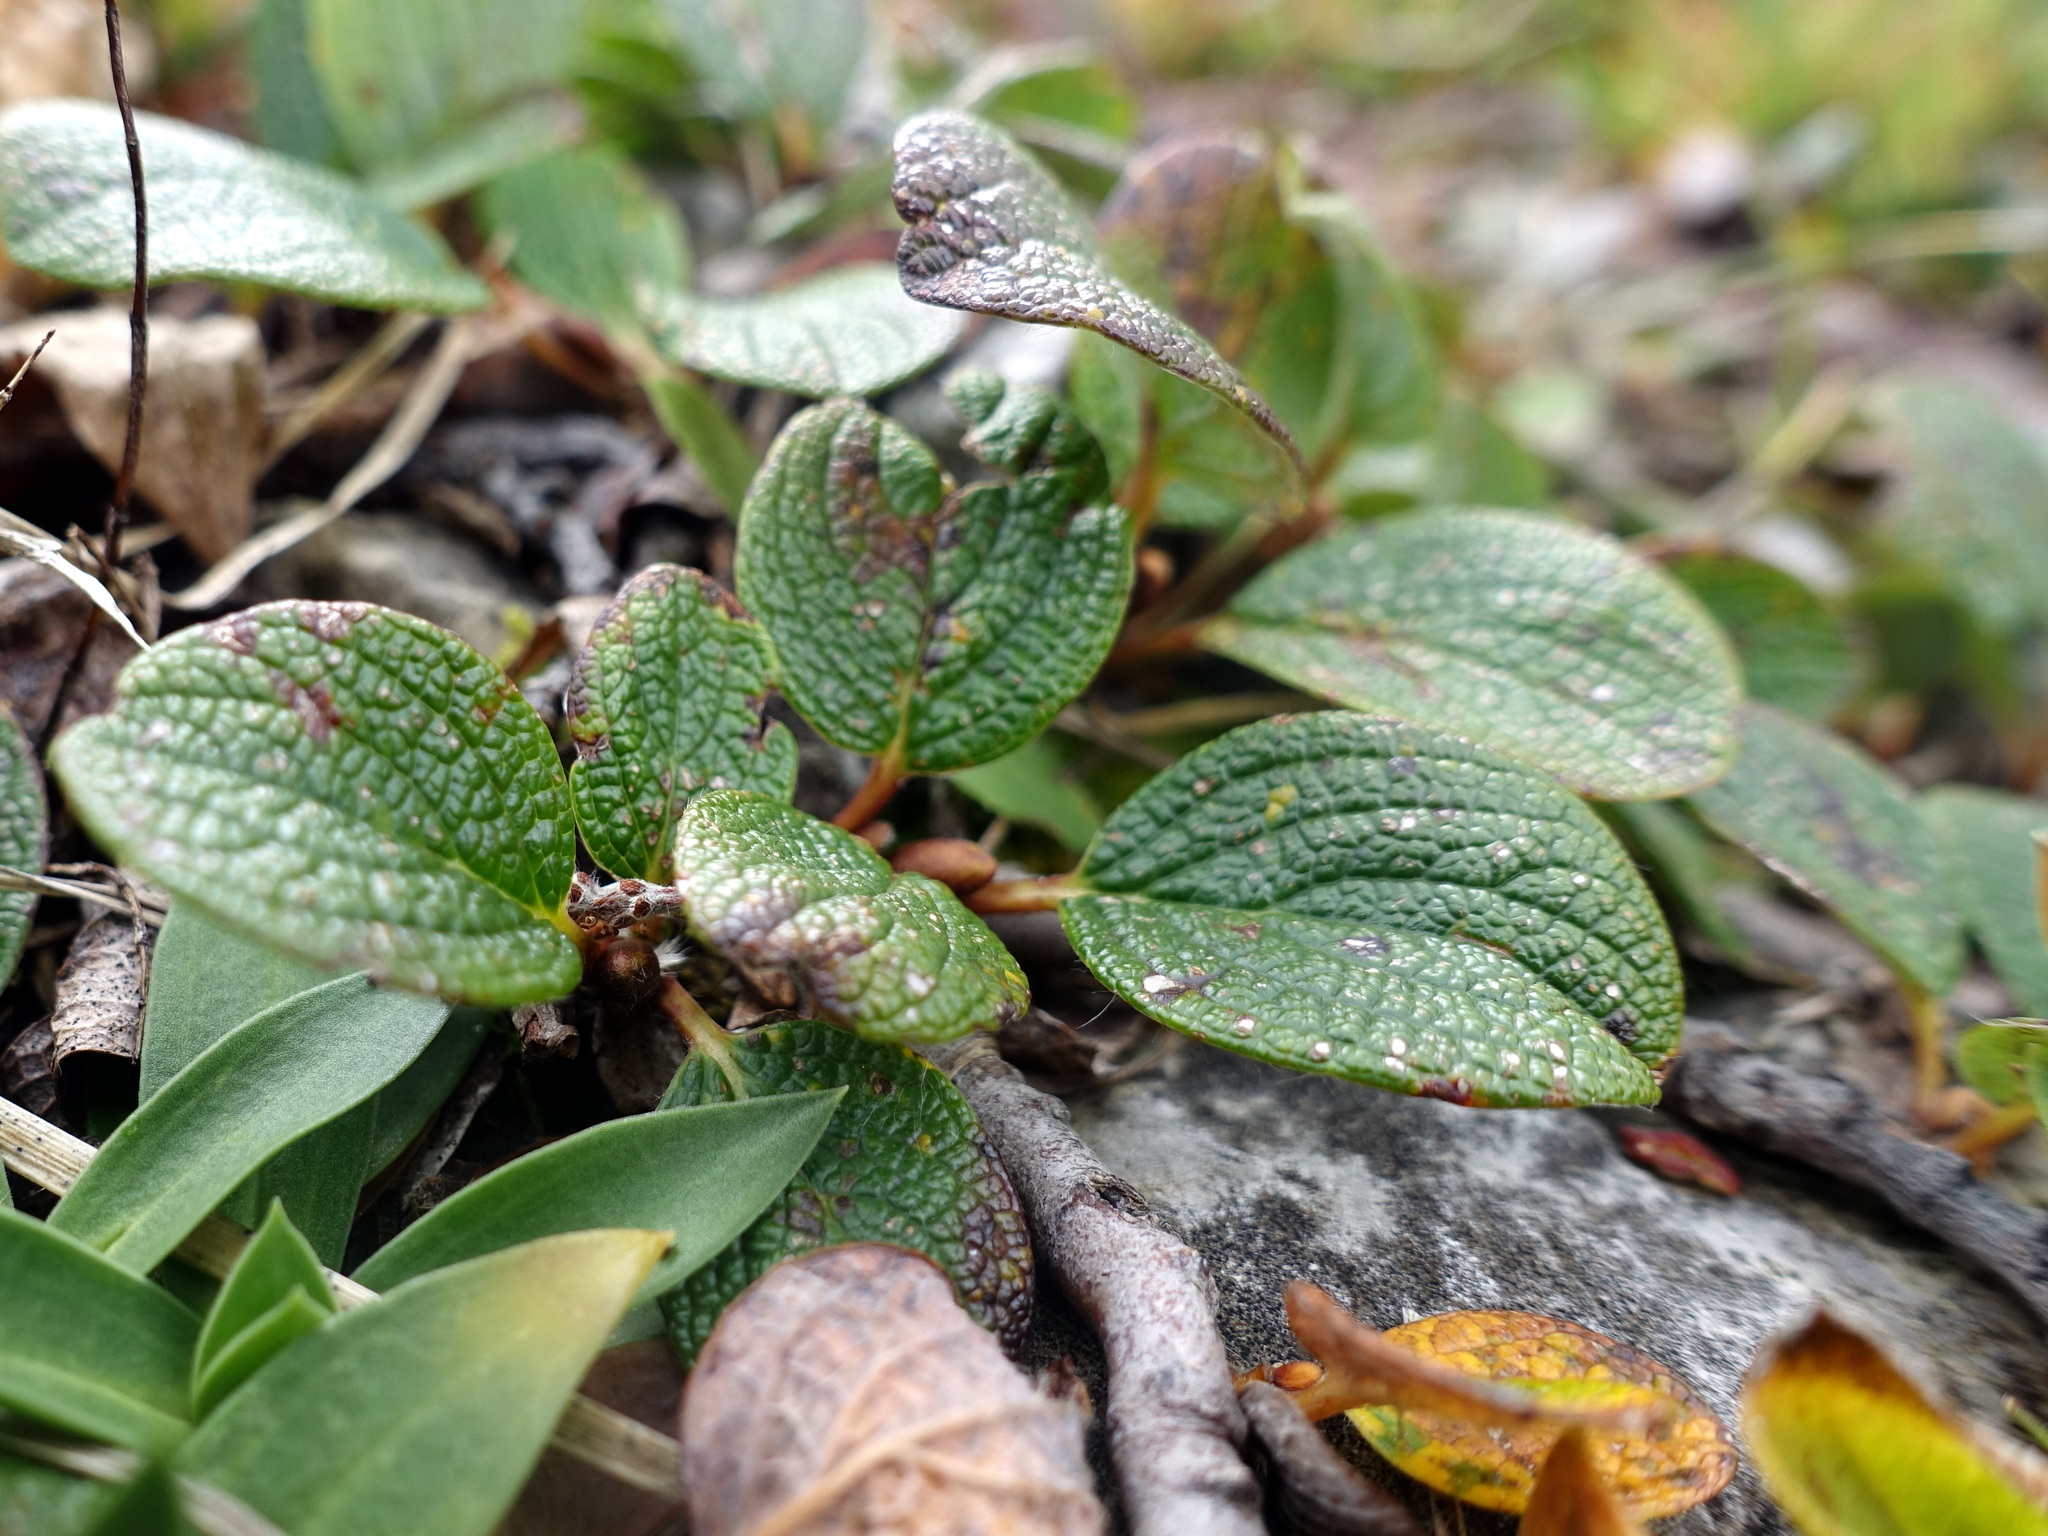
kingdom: Plantae
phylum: Tracheophyta
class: Magnoliopsida
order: Malpighiales
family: Salicaceae
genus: Salix
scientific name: Salix reticulata
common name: Net-leaved willow
